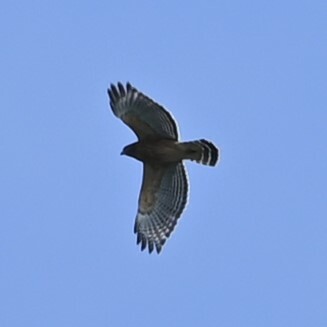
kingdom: Animalia
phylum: Chordata
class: Aves
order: Accipitriformes
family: Accipitridae
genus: Buteo
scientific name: Buteo lineatus
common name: Red-shouldered hawk
